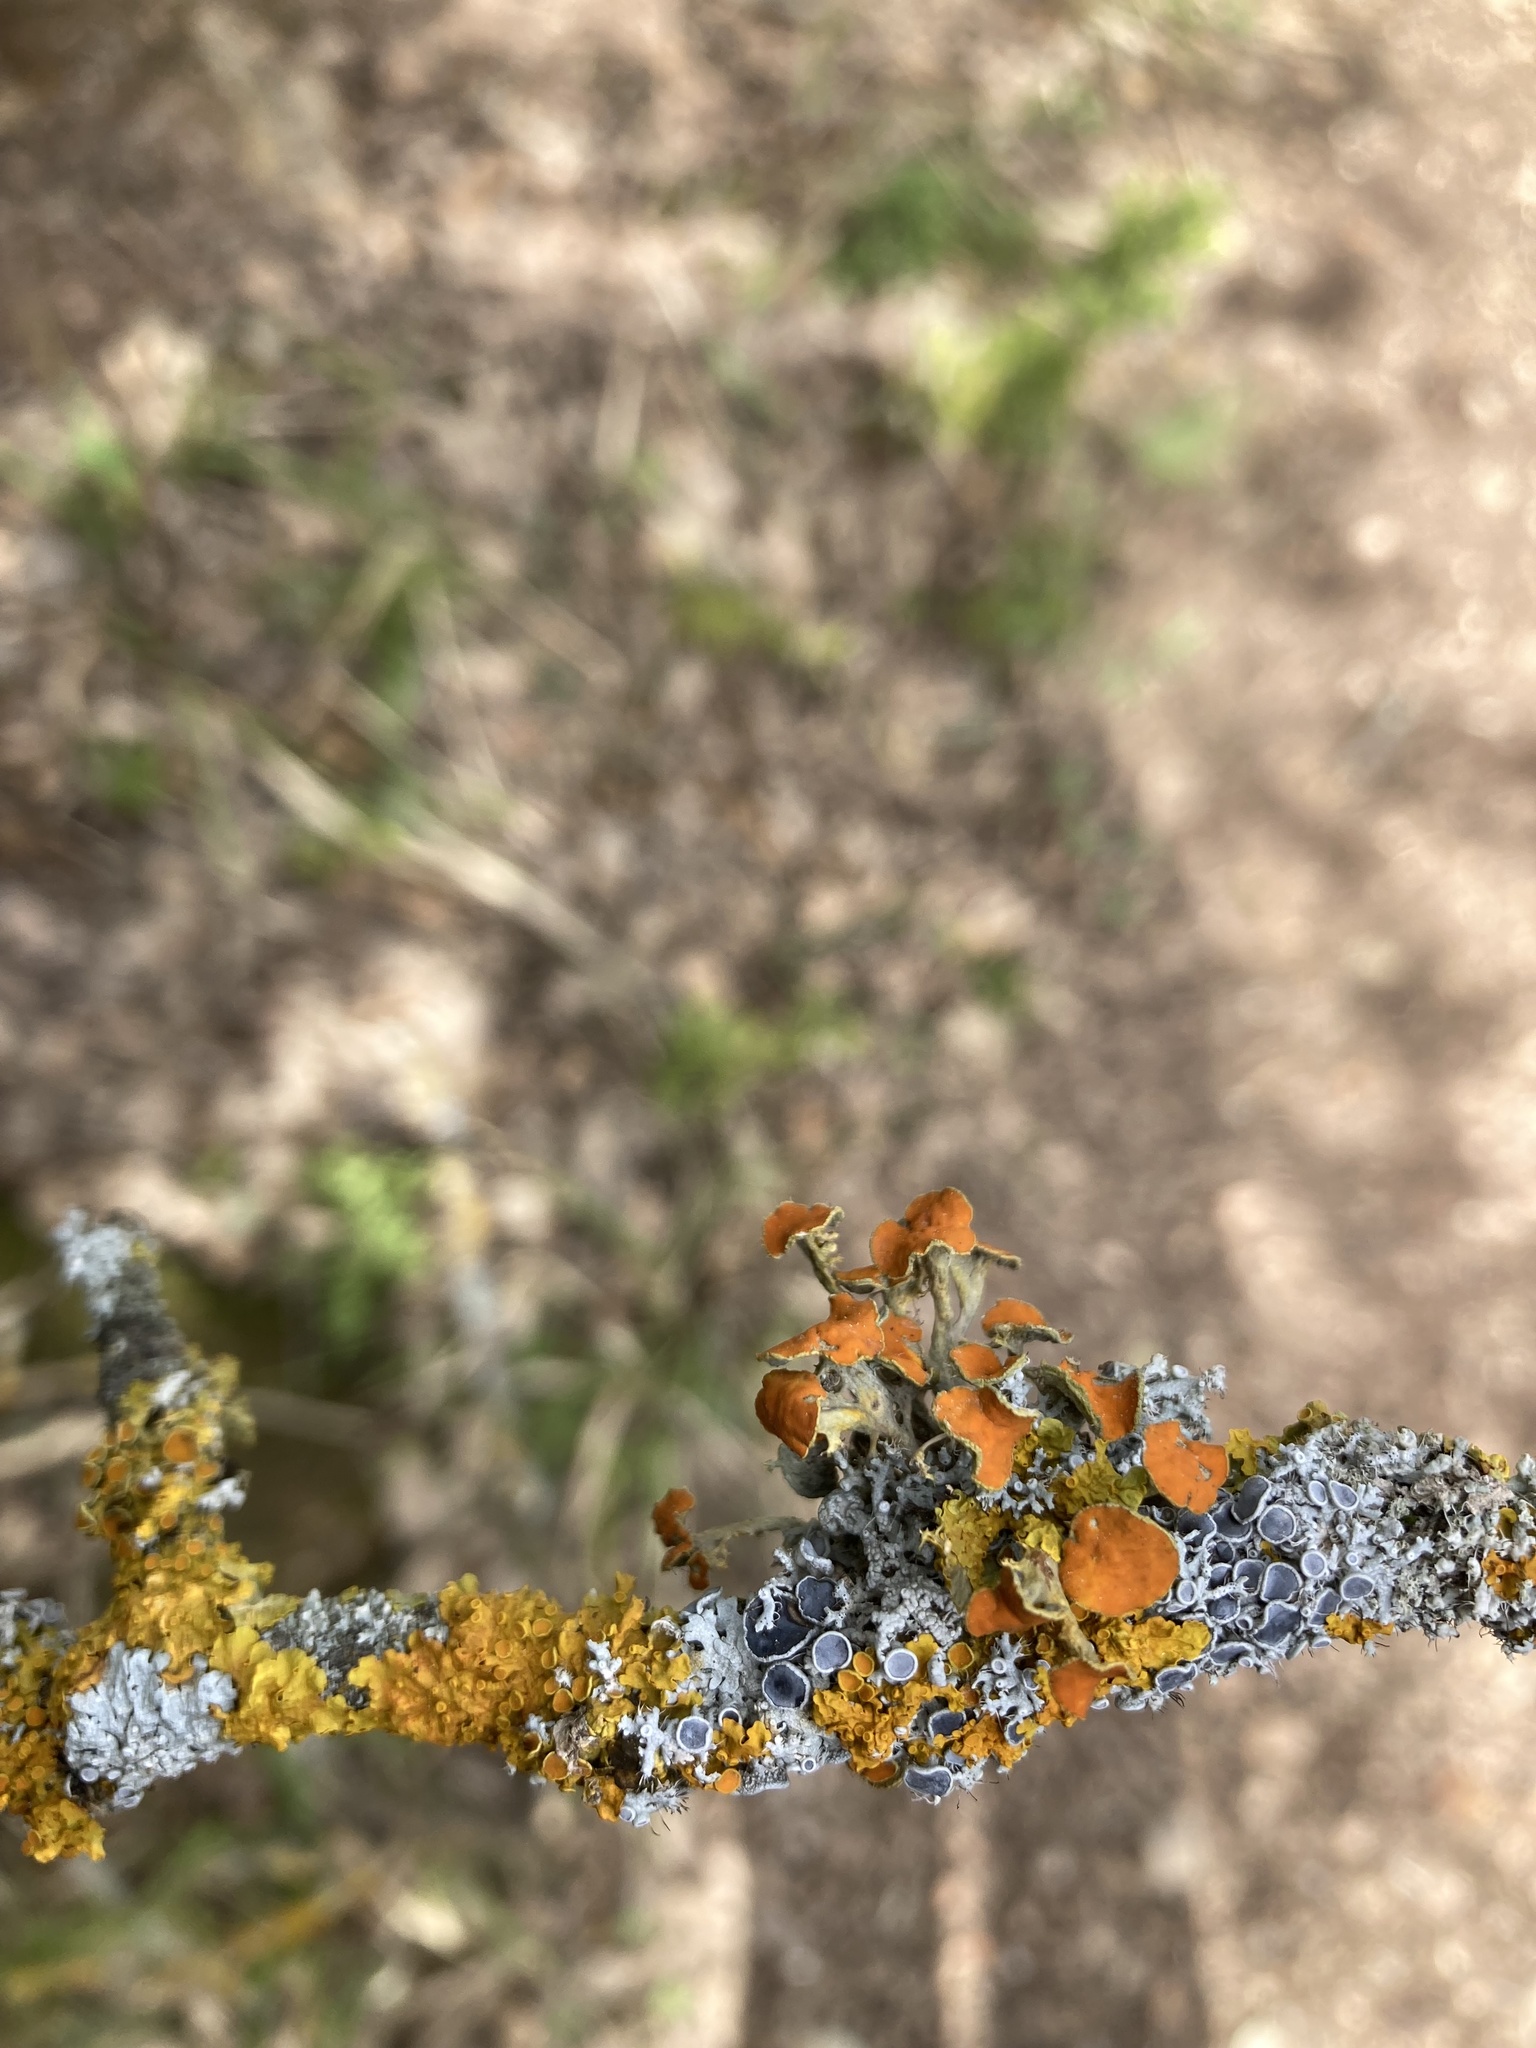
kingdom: Fungi
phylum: Ascomycota
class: Lecanoromycetes
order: Teloschistales
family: Teloschistaceae
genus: Niorma
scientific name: Niorma chrysophthalma
